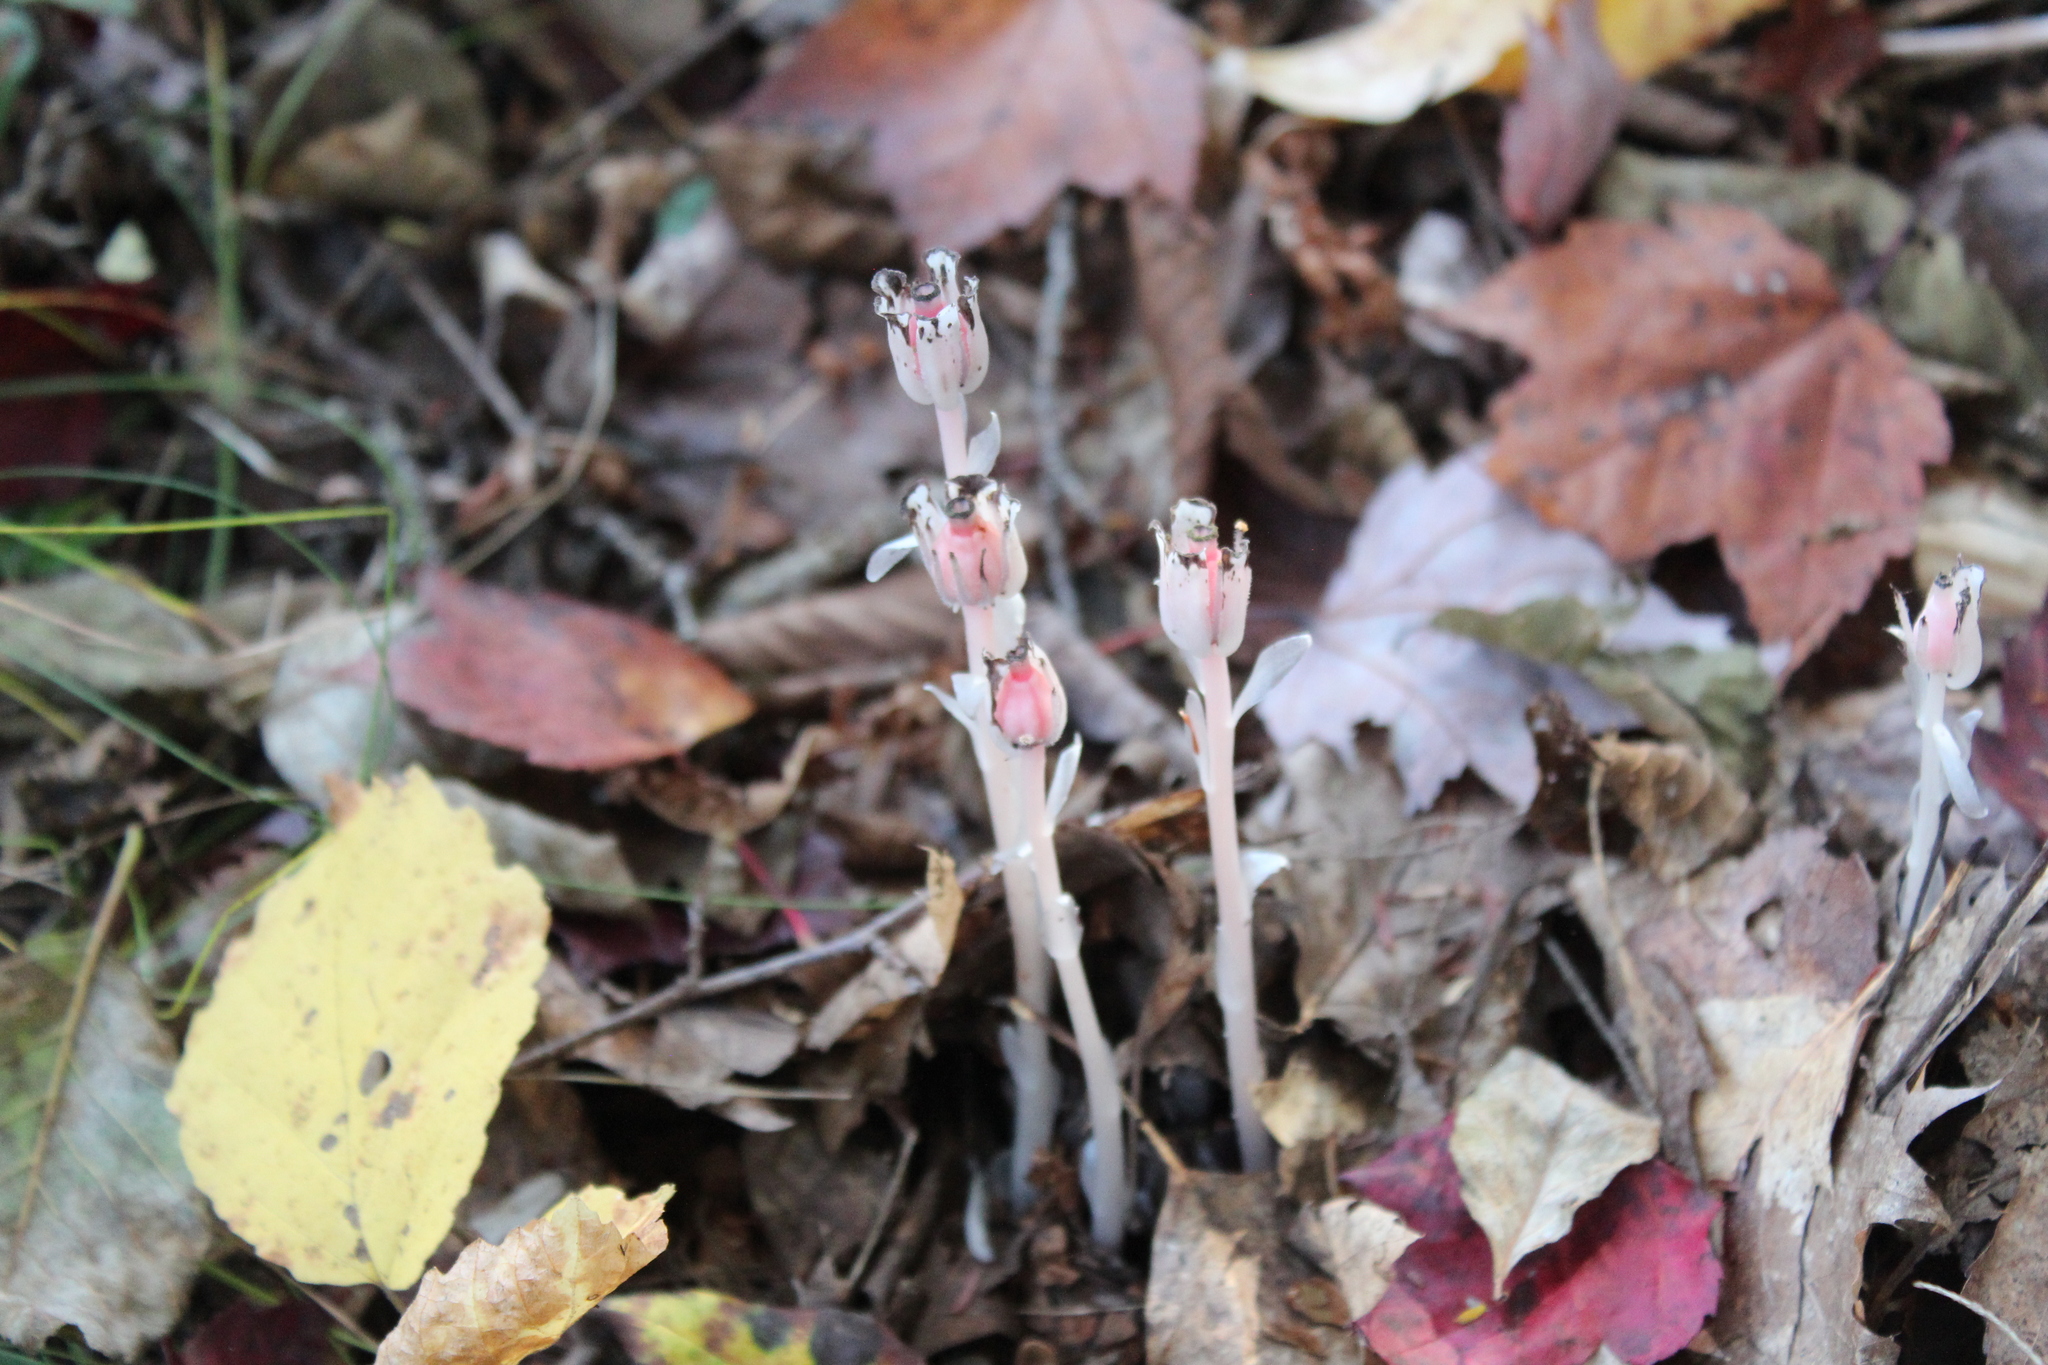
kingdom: Plantae
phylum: Tracheophyta
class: Magnoliopsida
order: Ericales
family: Ericaceae
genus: Monotropa
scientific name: Monotropa uniflora
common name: Convulsion root
